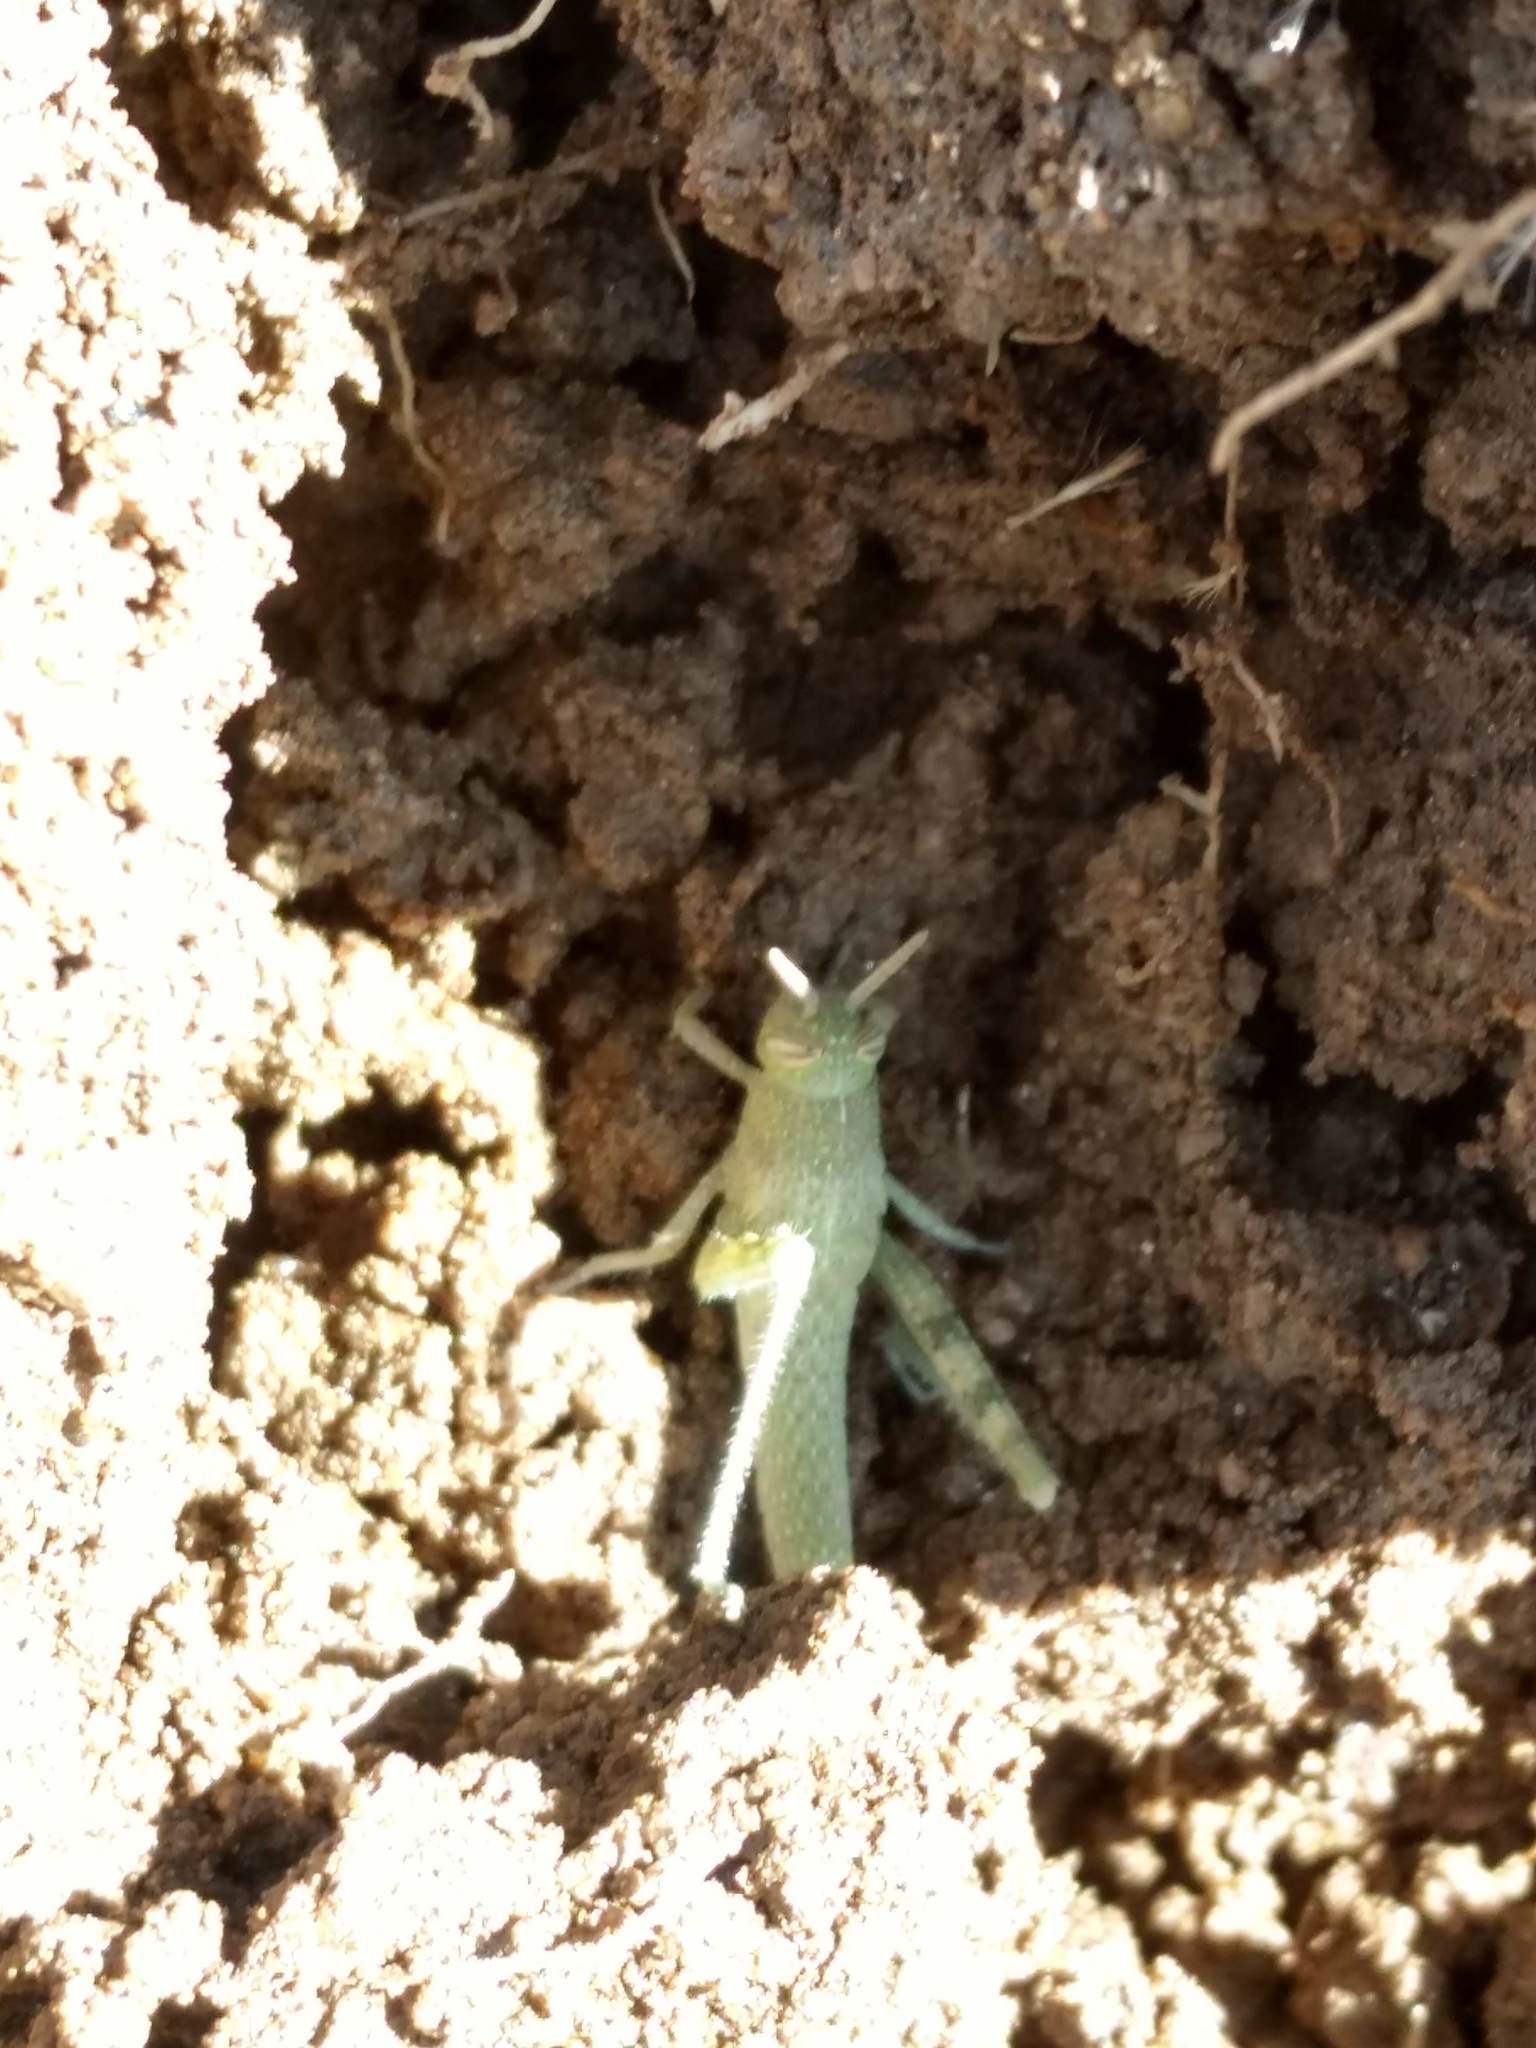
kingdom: Animalia
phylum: Arthropoda
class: Insecta
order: Orthoptera
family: Acrididae
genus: Schistocerca
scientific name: Schistocerca nitens
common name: Vagrant grasshopper
